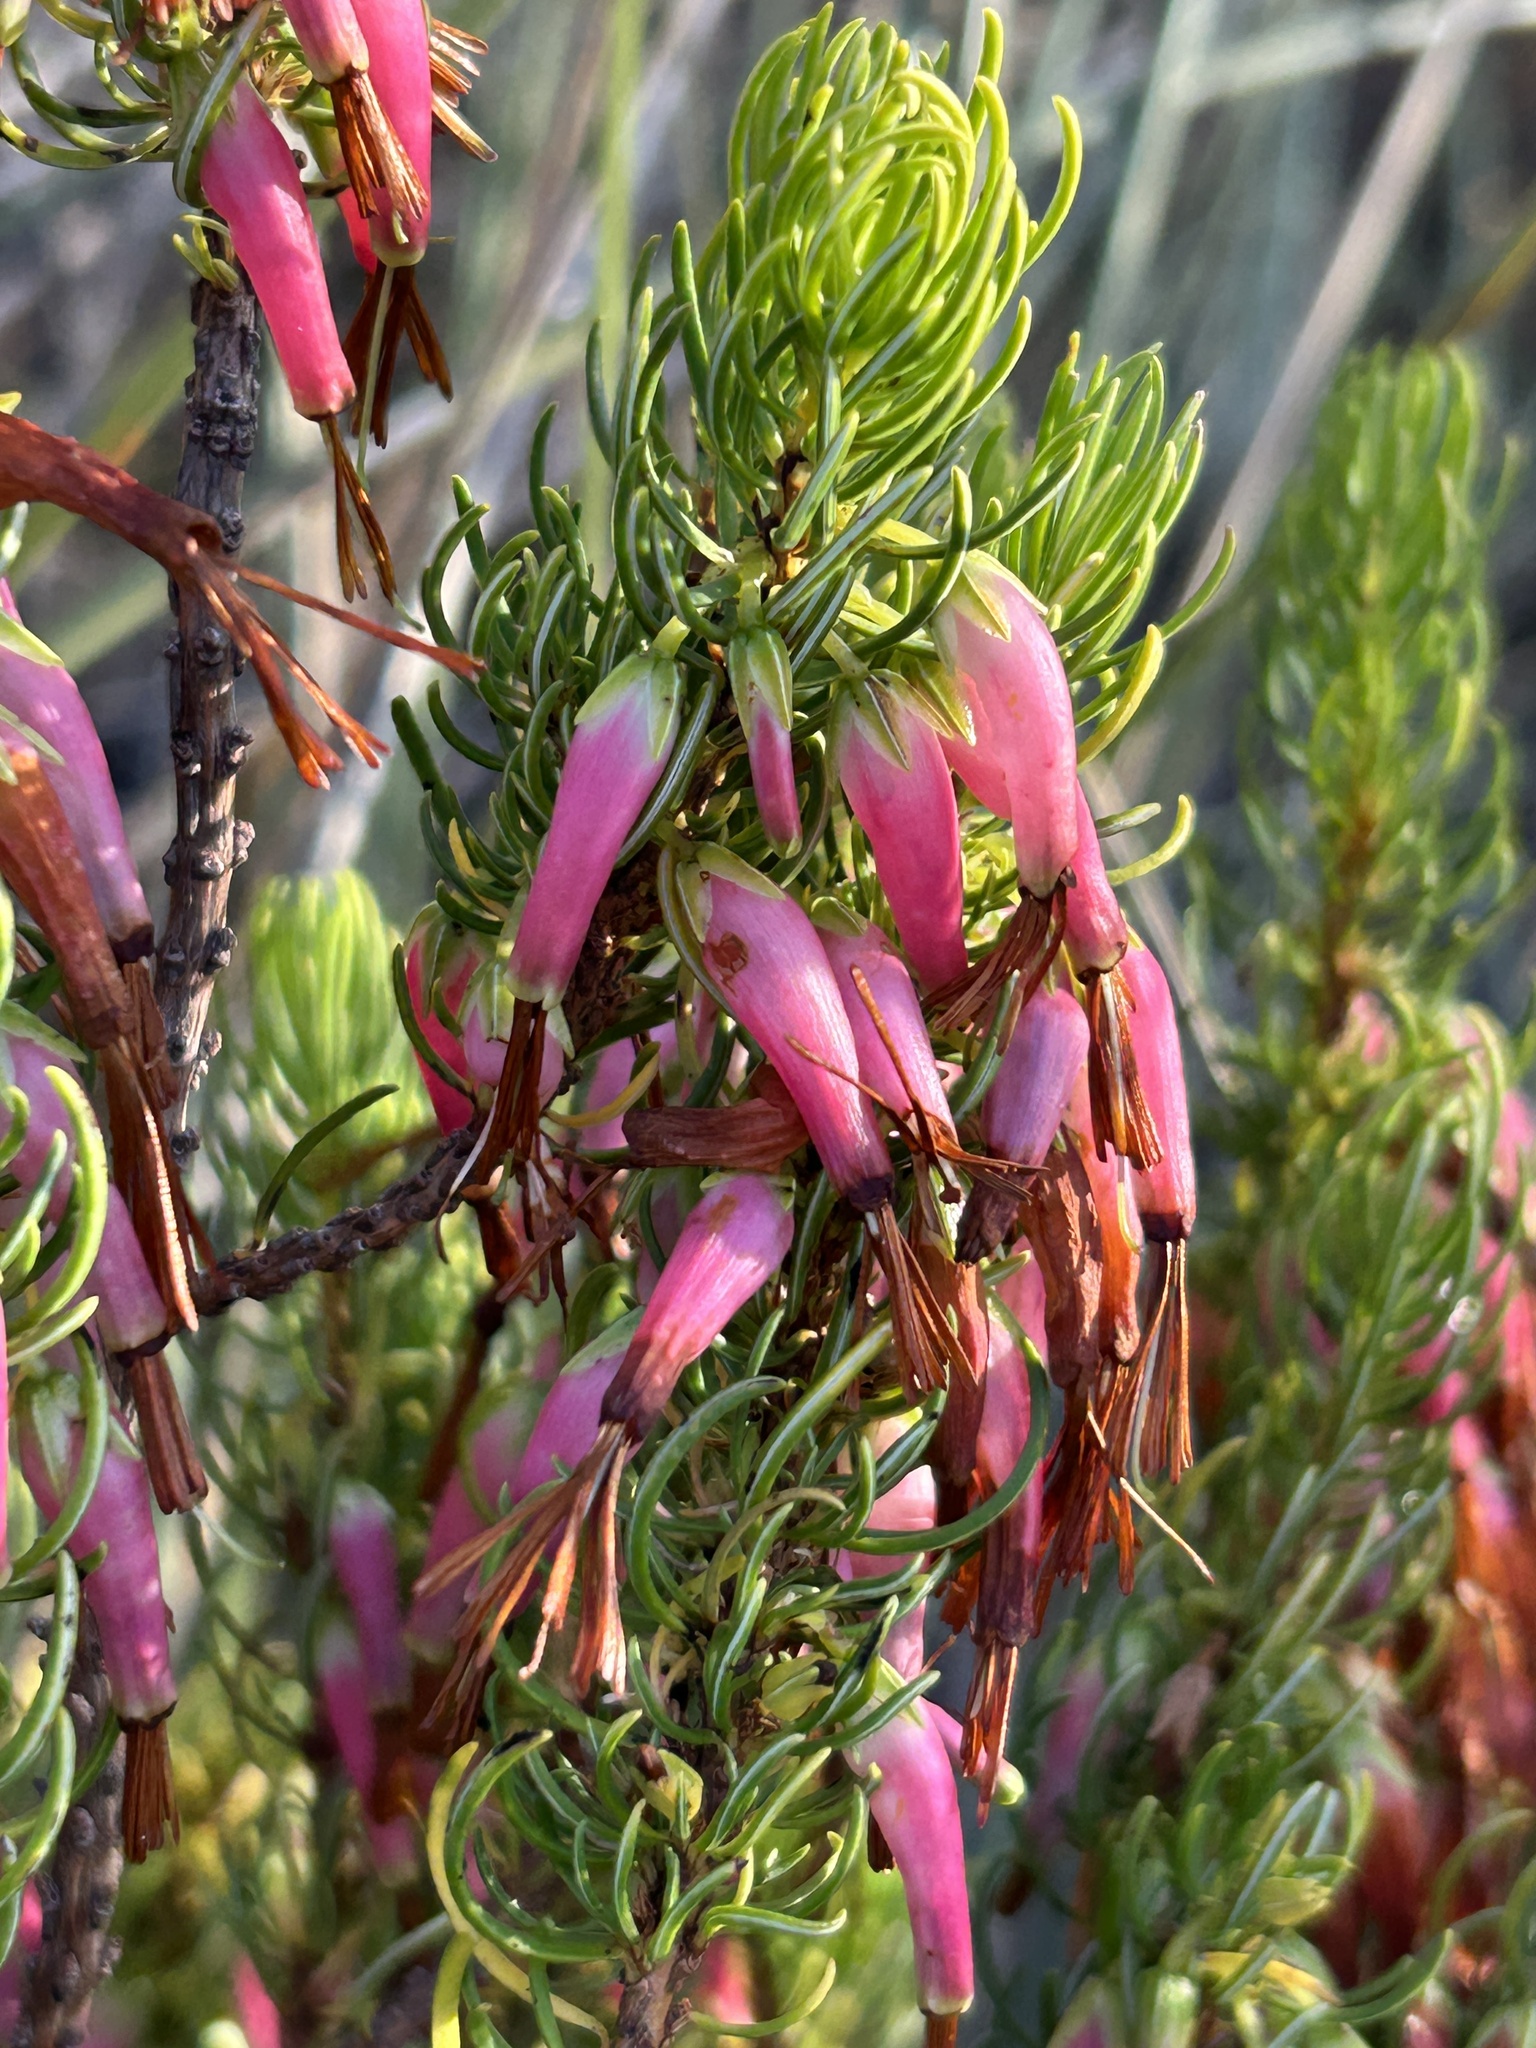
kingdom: Plantae
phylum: Tracheophyta
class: Magnoliopsida
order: Ericales
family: Ericaceae
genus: Erica
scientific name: Erica plukenetii
